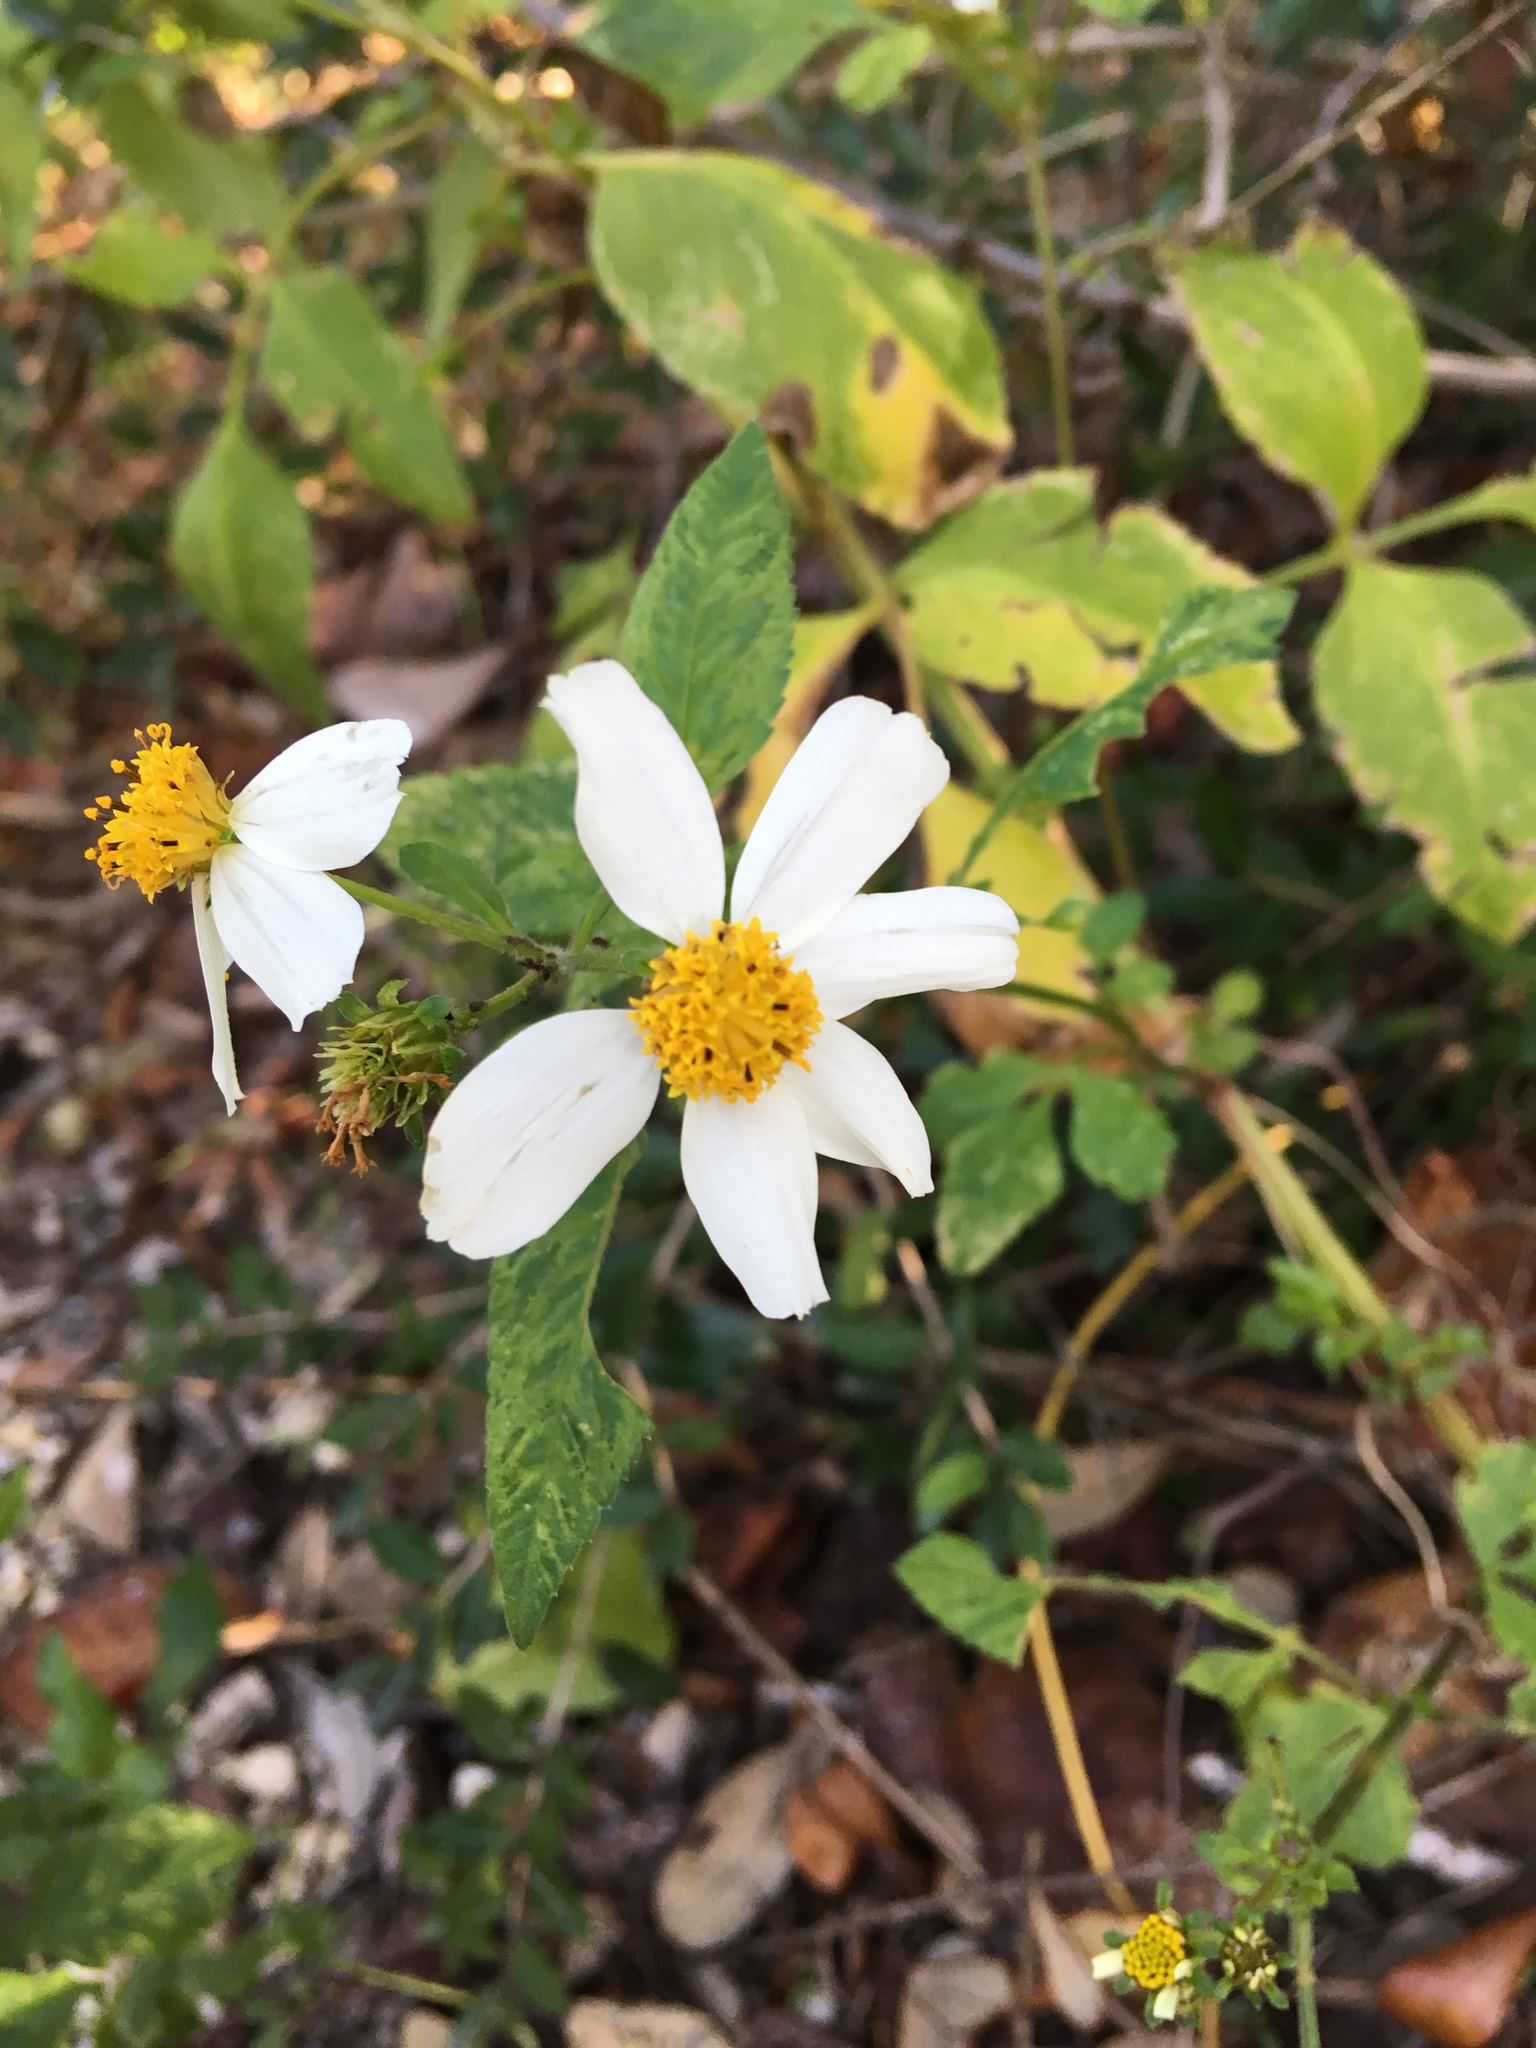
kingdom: Plantae
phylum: Tracheophyta
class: Magnoliopsida
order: Asterales
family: Asteraceae
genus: Bidens
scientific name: Bidens alba
